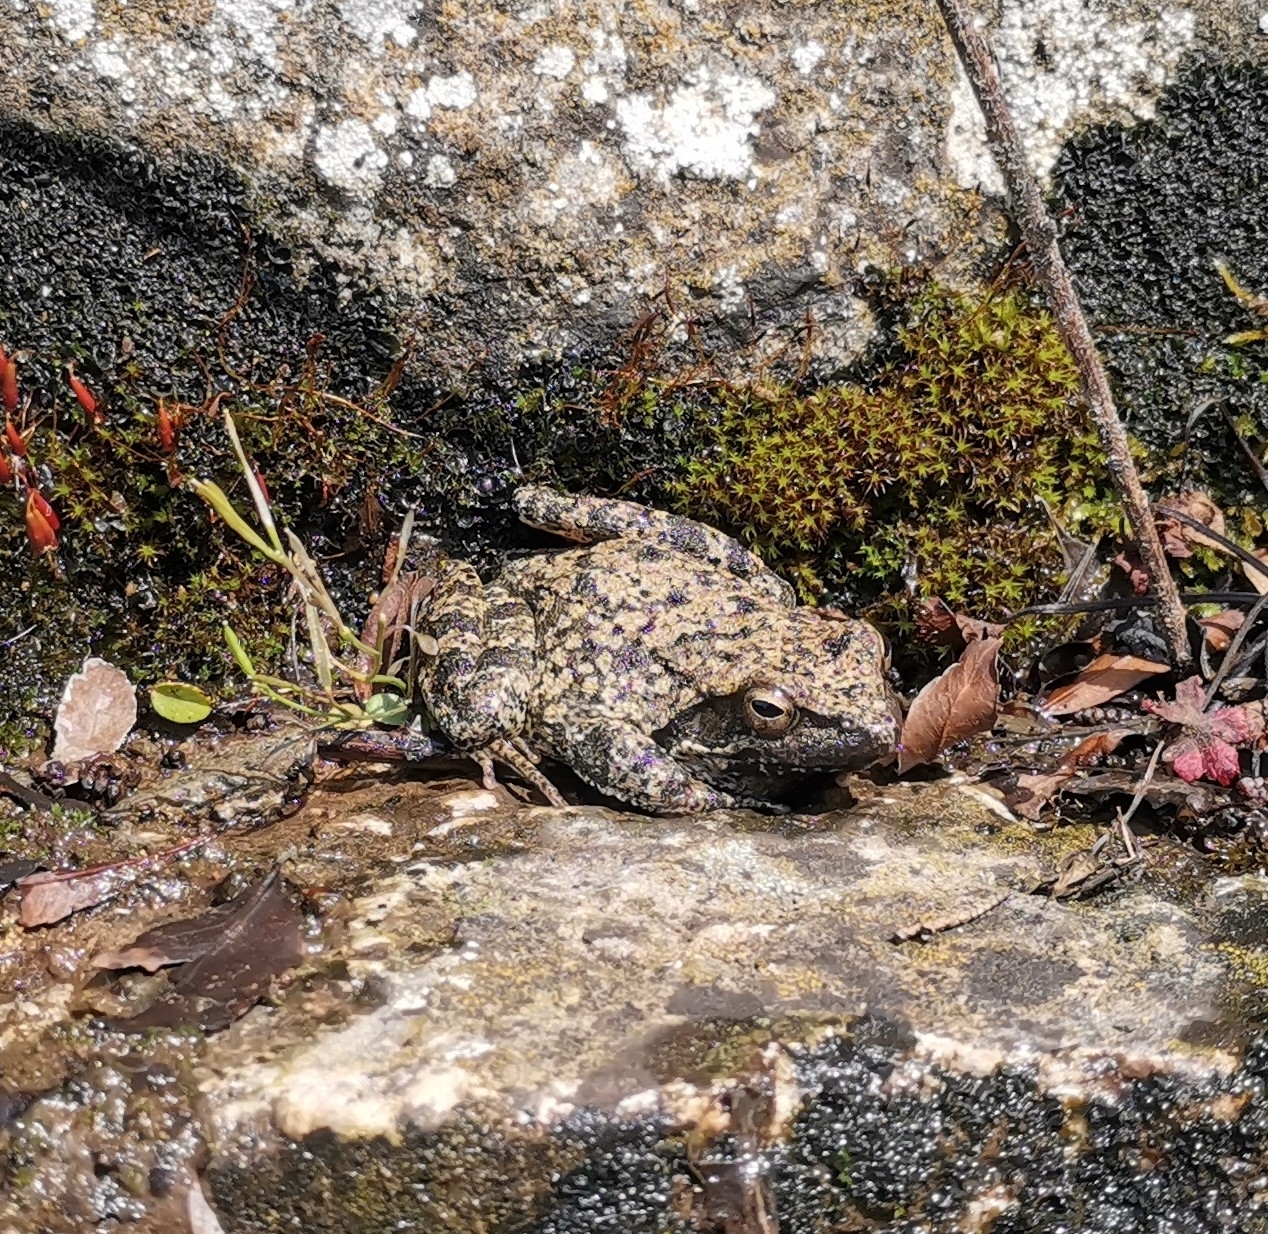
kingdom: Animalia
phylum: Chordata
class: Amphibia
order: Anura
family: Ranidae
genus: Rana
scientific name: Rana italica
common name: Italian stream frog
